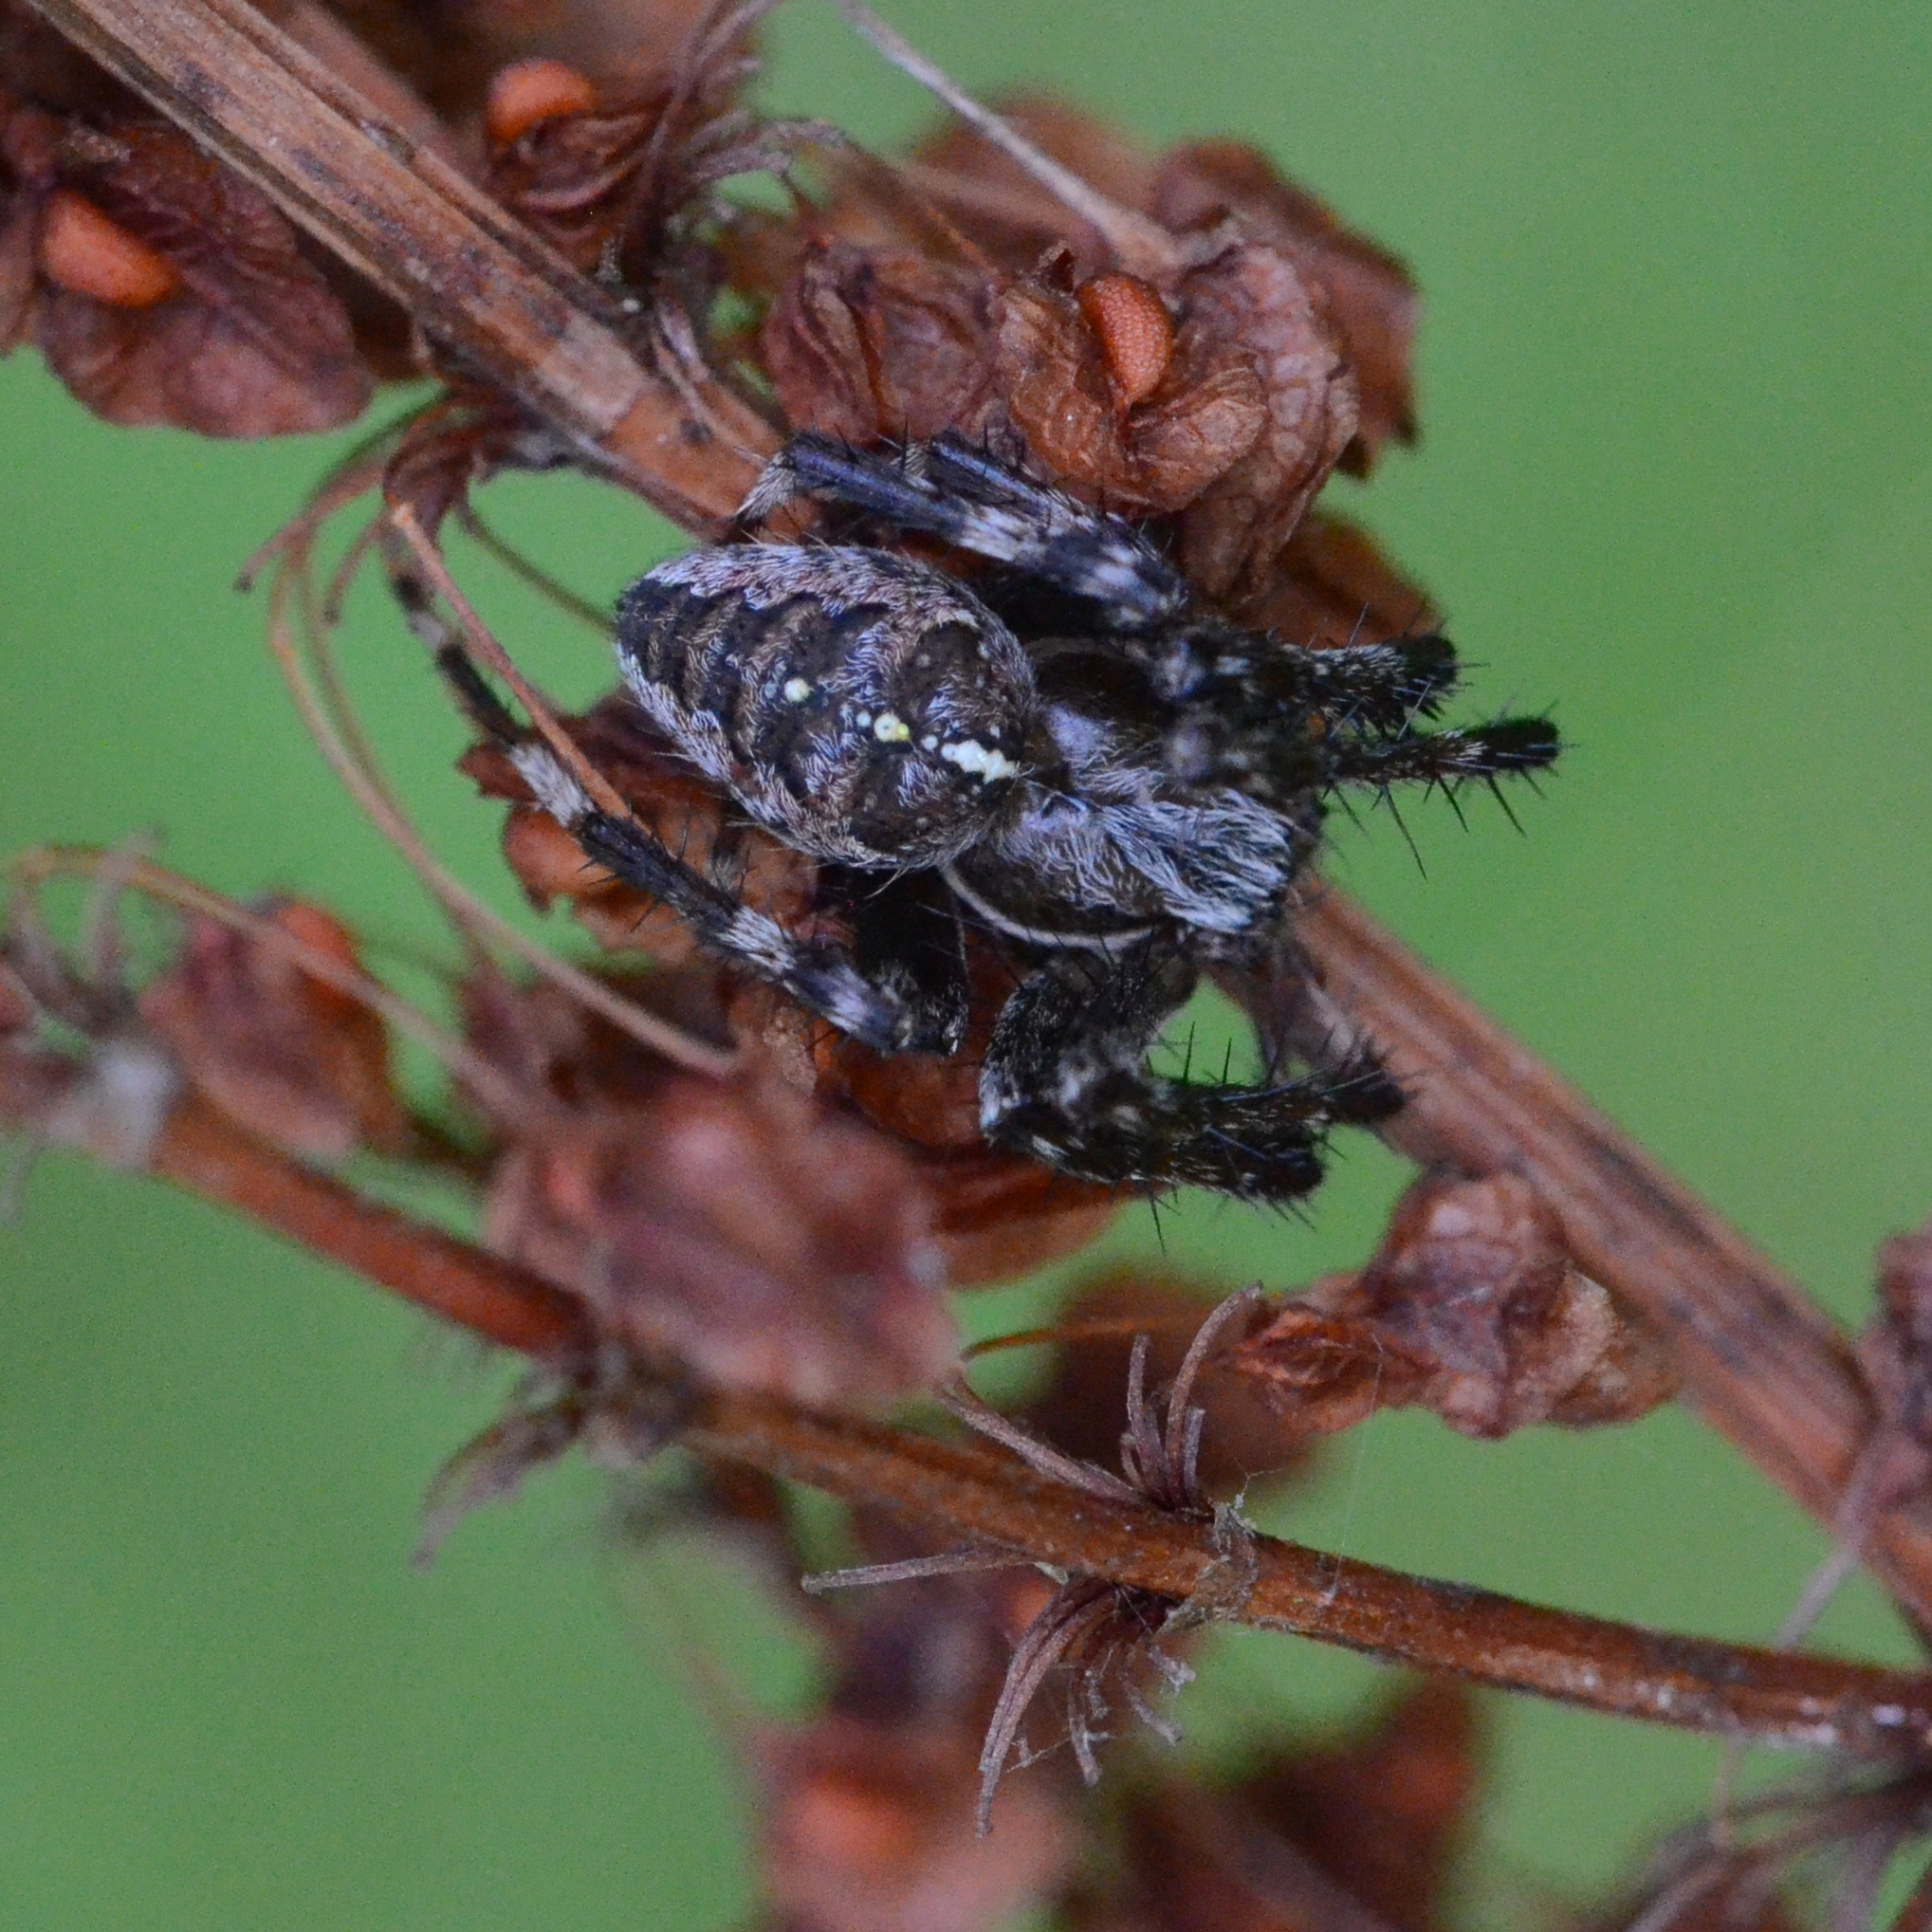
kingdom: Animalia
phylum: Arthropoda
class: Arachnida
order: Araneae
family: Araneidae
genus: Araneus
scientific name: Araneus diadematus
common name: Cross orbweaver
